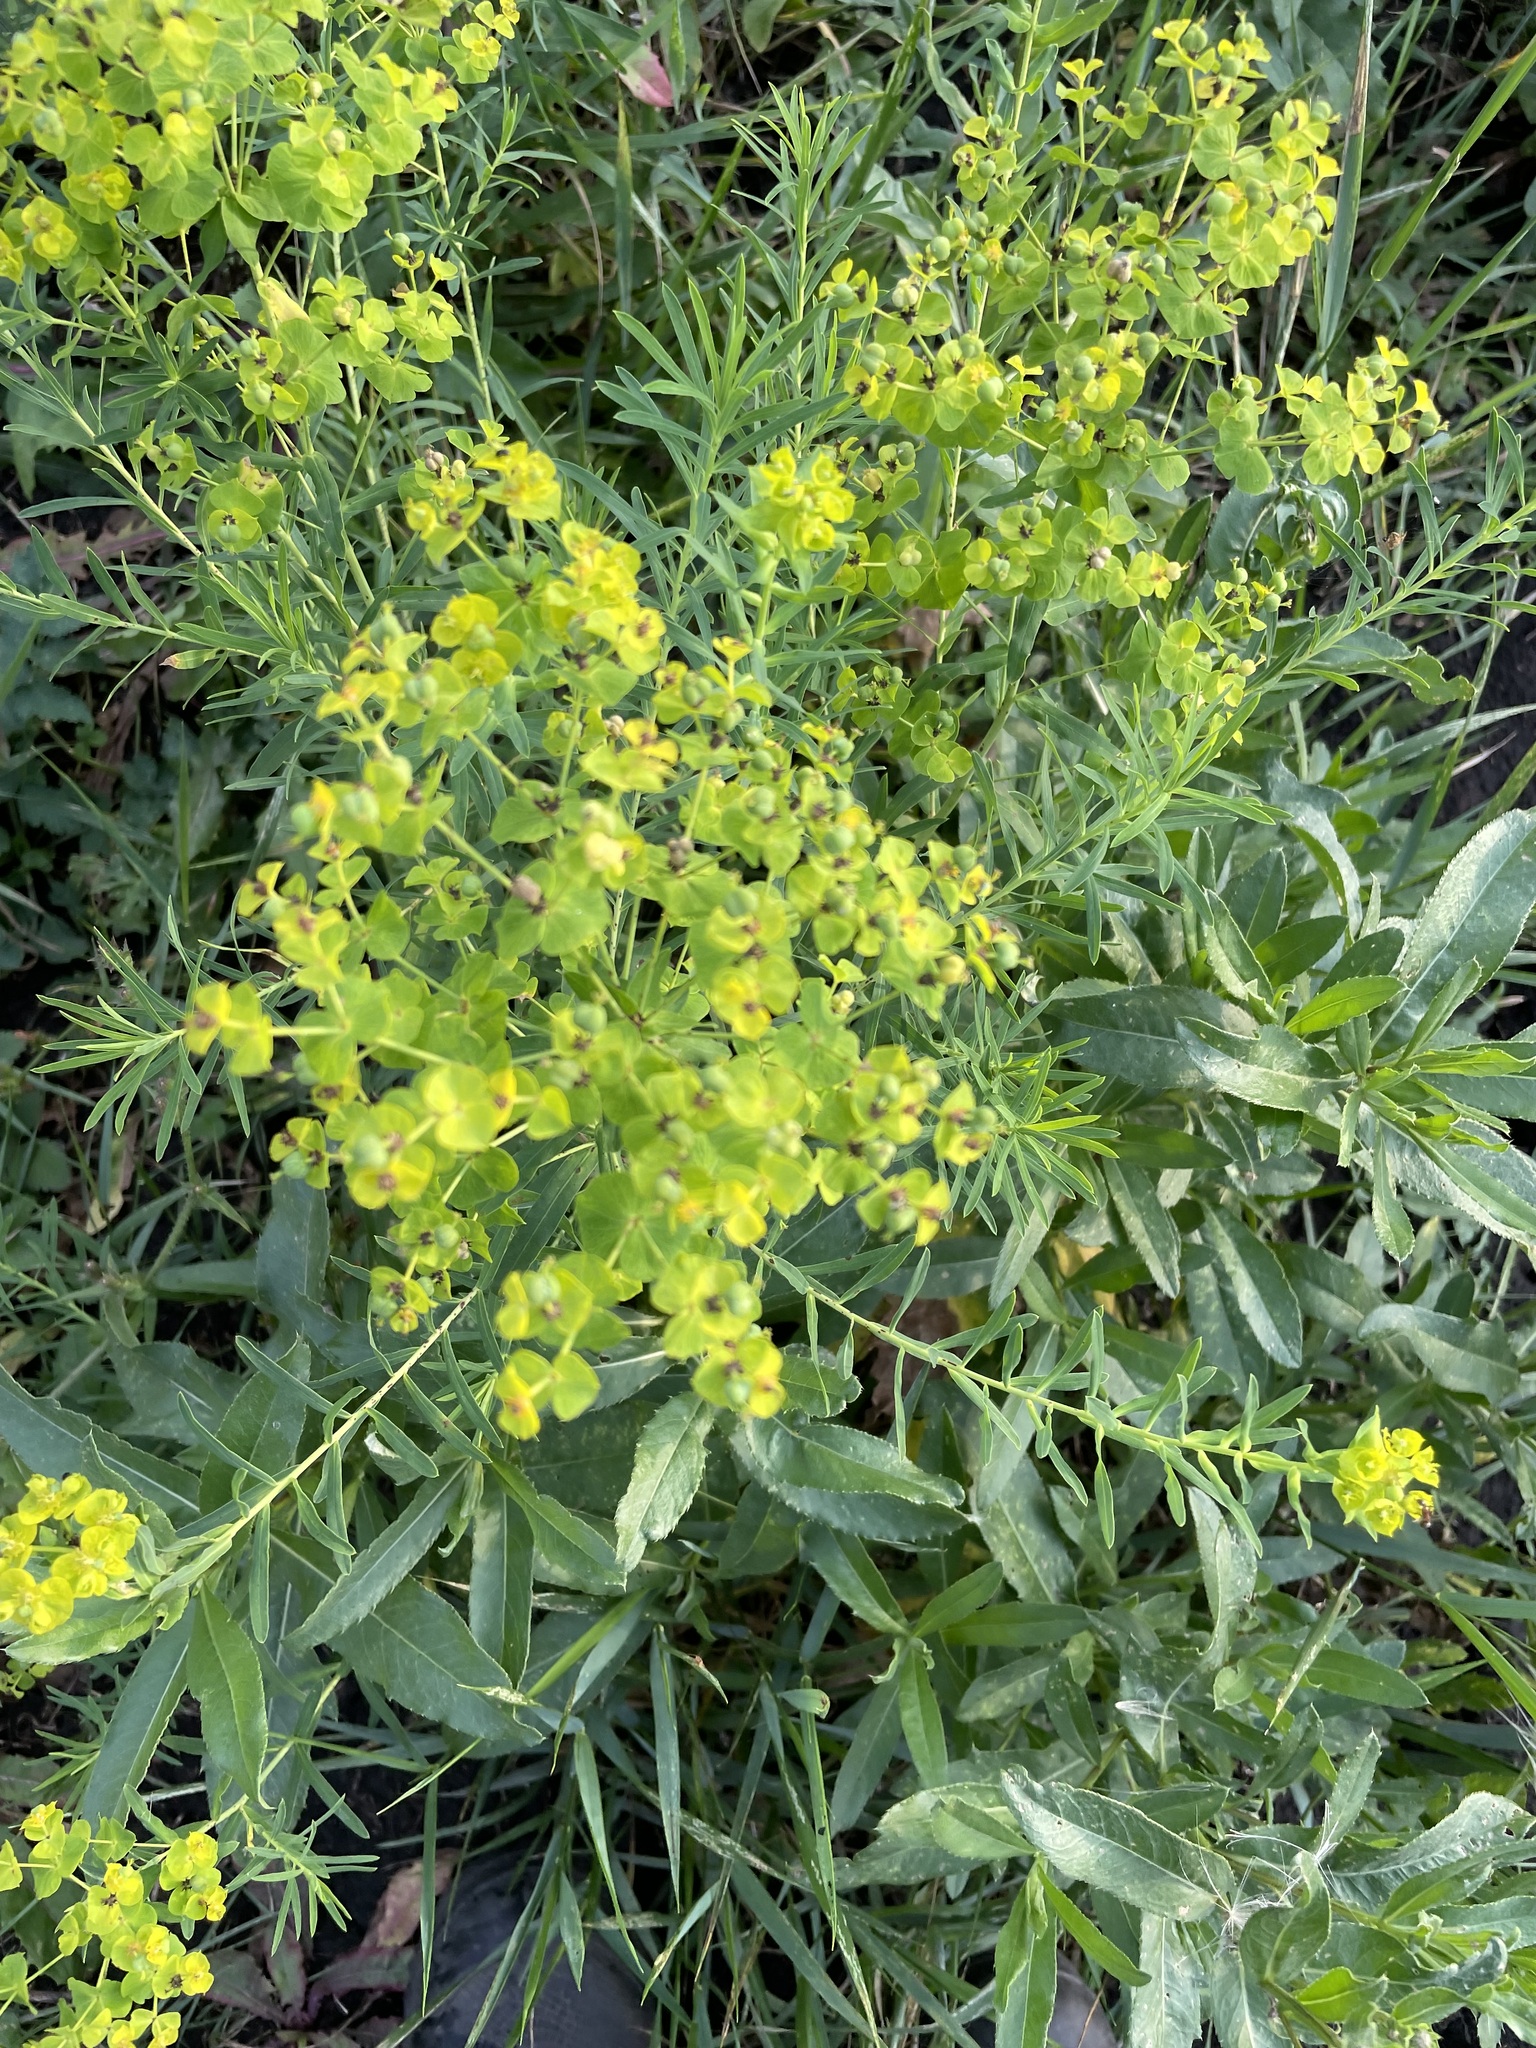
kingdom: Plantae
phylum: Tracheophyta
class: Magnoliopsida
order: Malpighiales
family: Euphorbiaceae
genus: Euphorbia
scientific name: Euphorbia virgata
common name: Leafy spurge
